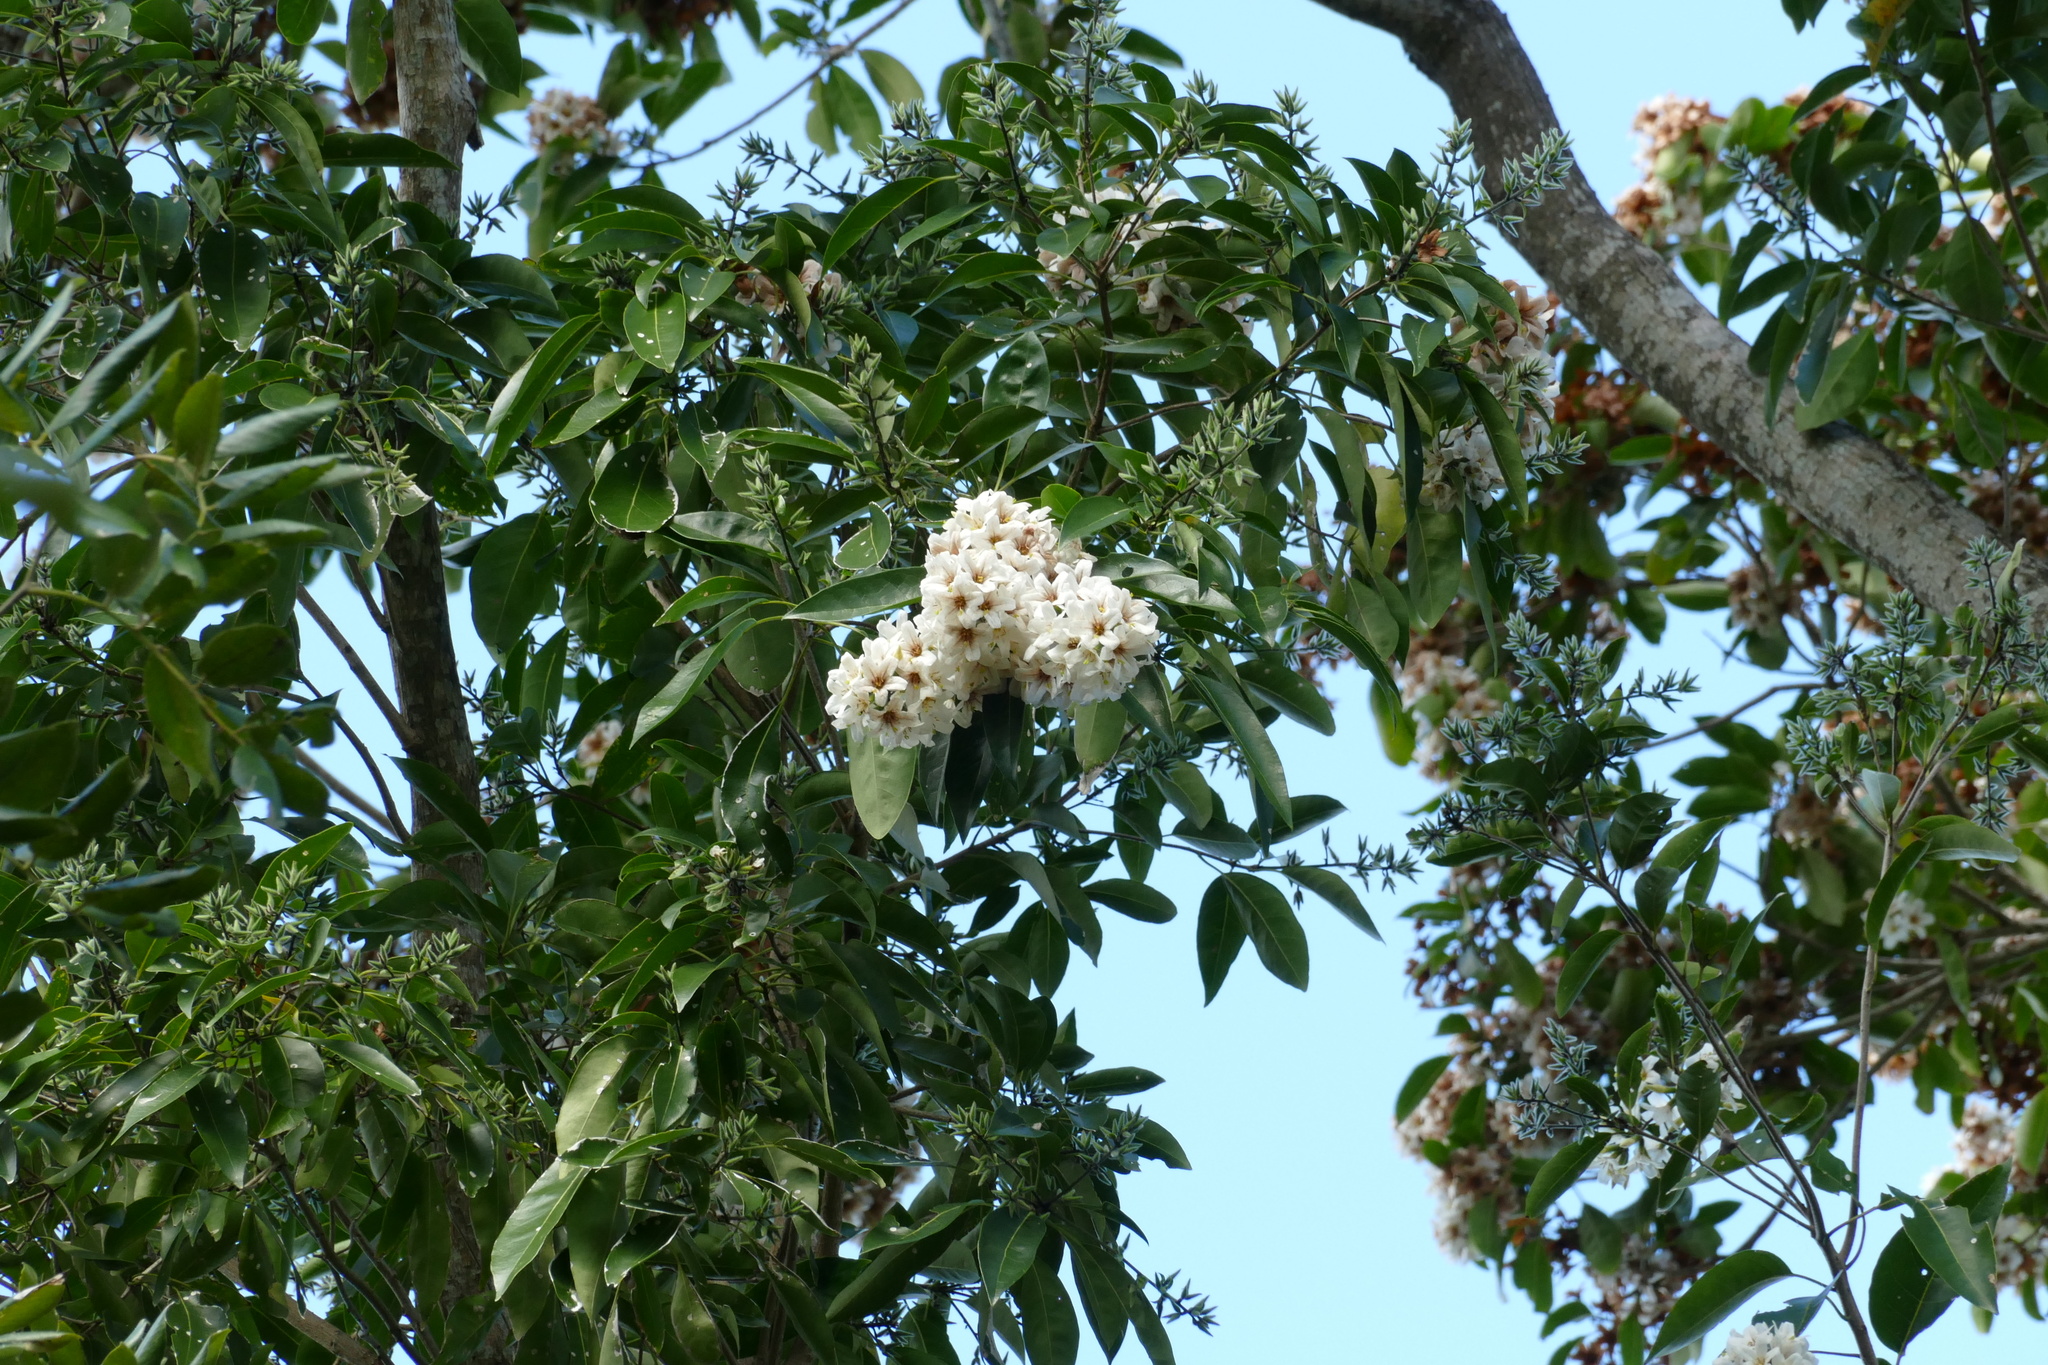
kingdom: Plantae
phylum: Tracheophyta
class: Magnoliopsida
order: Boraginales
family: Cordiaceae
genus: Cordia
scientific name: Cordia gerascanthus
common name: Baria
